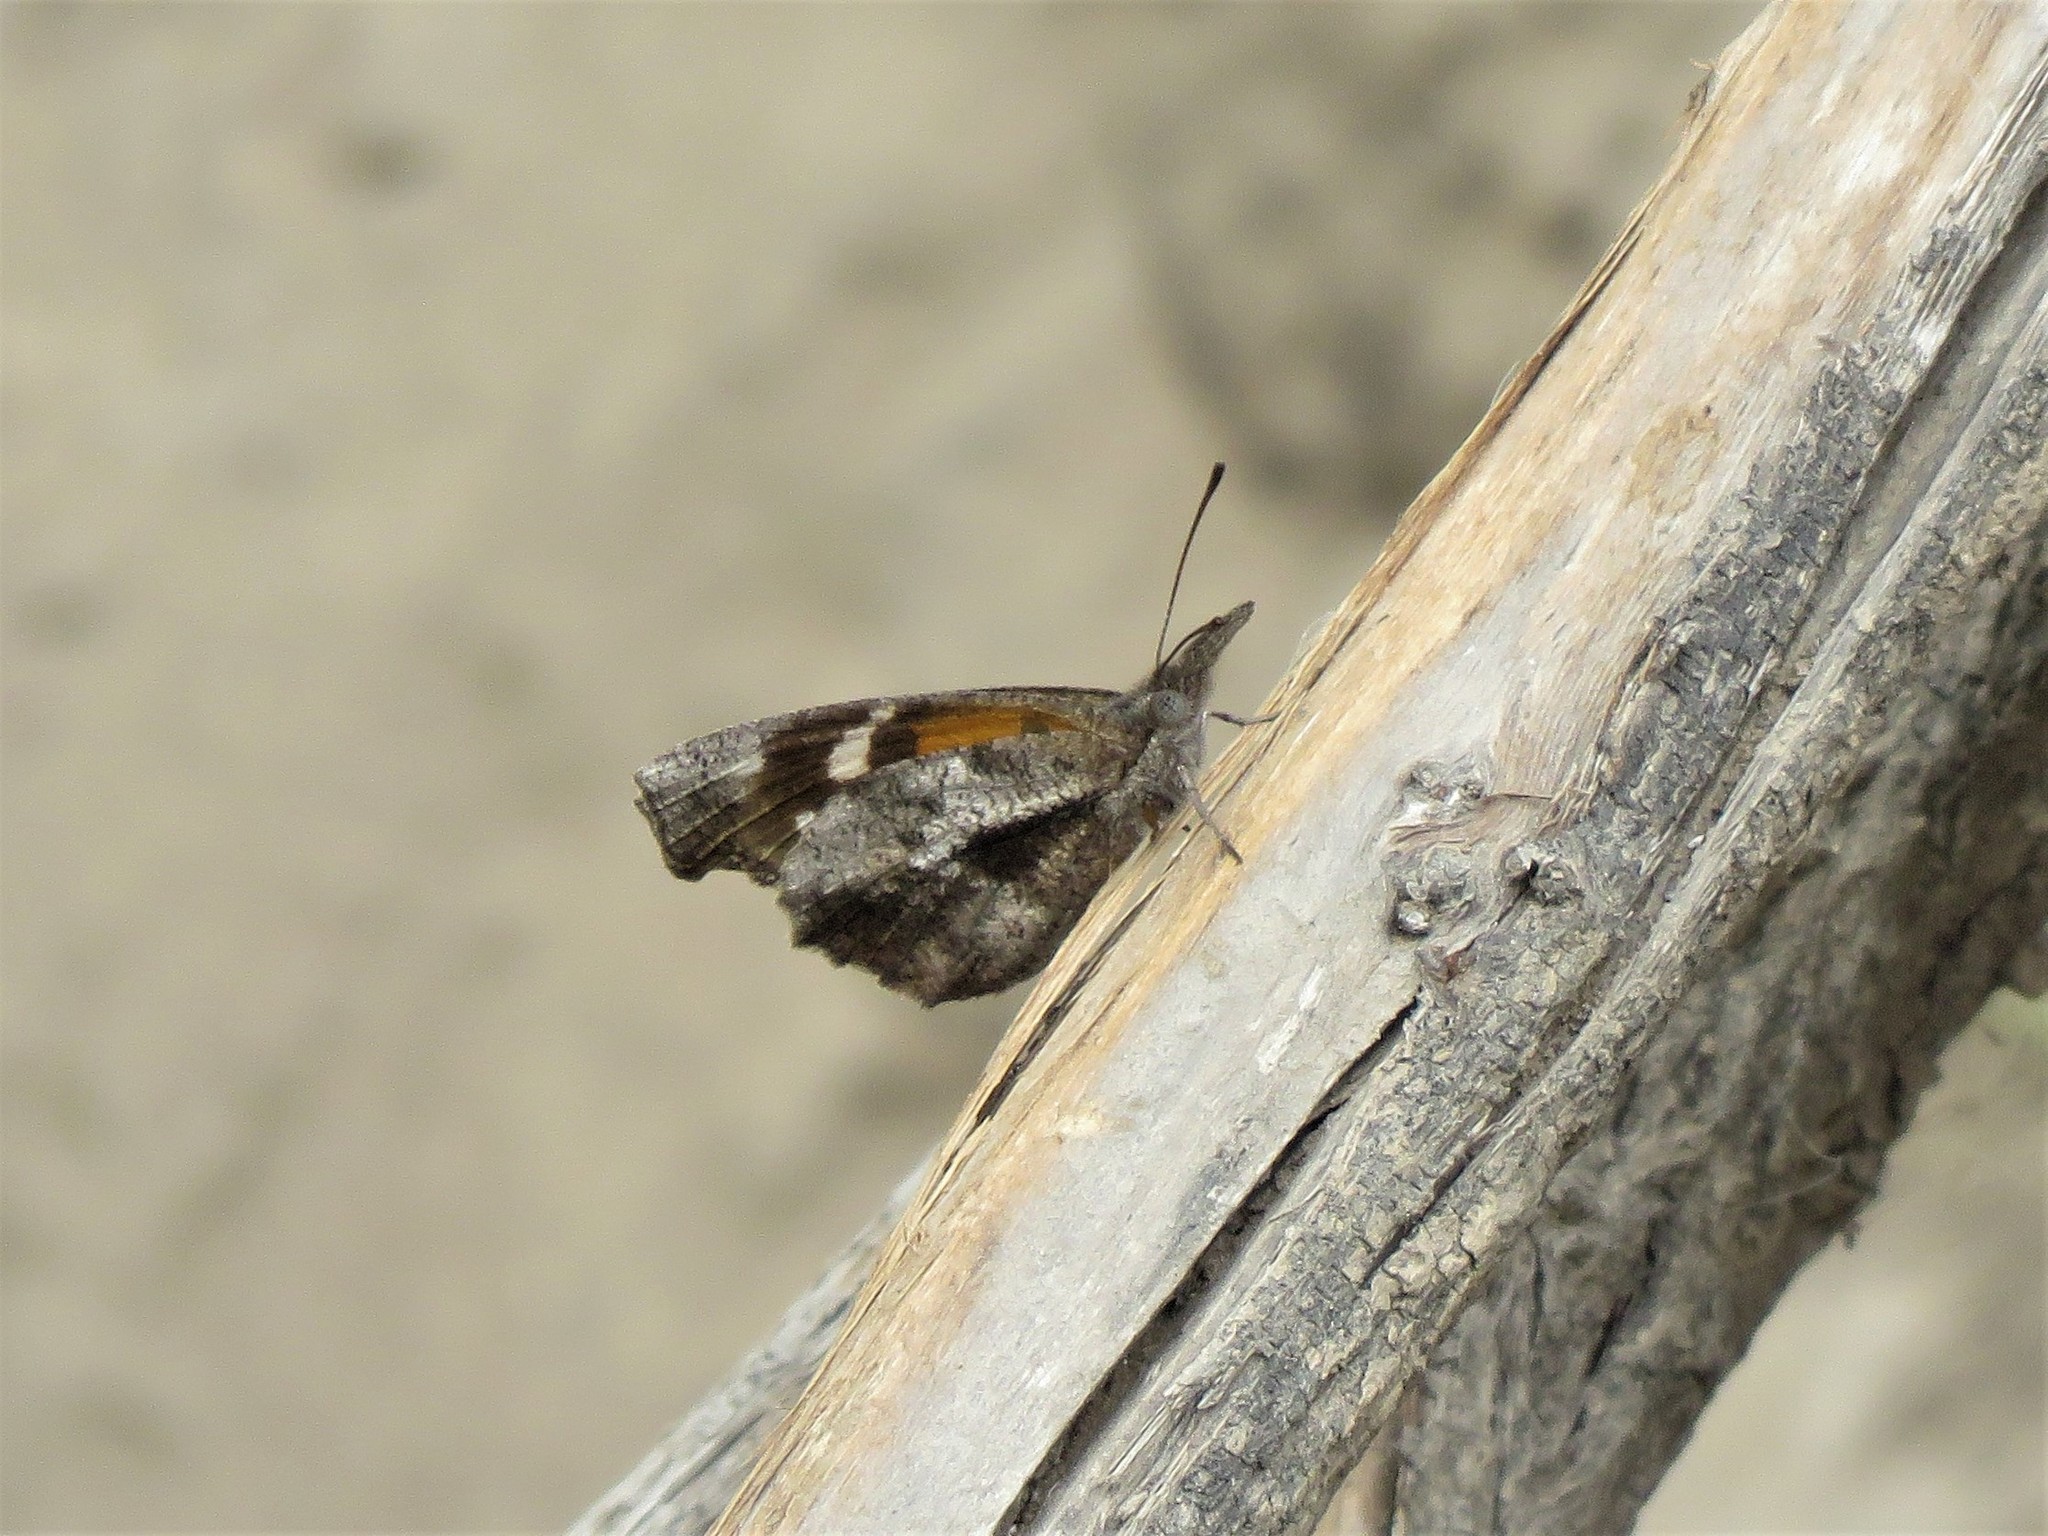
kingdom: Animalia
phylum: Arthropoda
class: Insecta
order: Lepidoptera
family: Nymphalidae
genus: Libytheana
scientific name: Libytheana carinenta
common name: American snout
